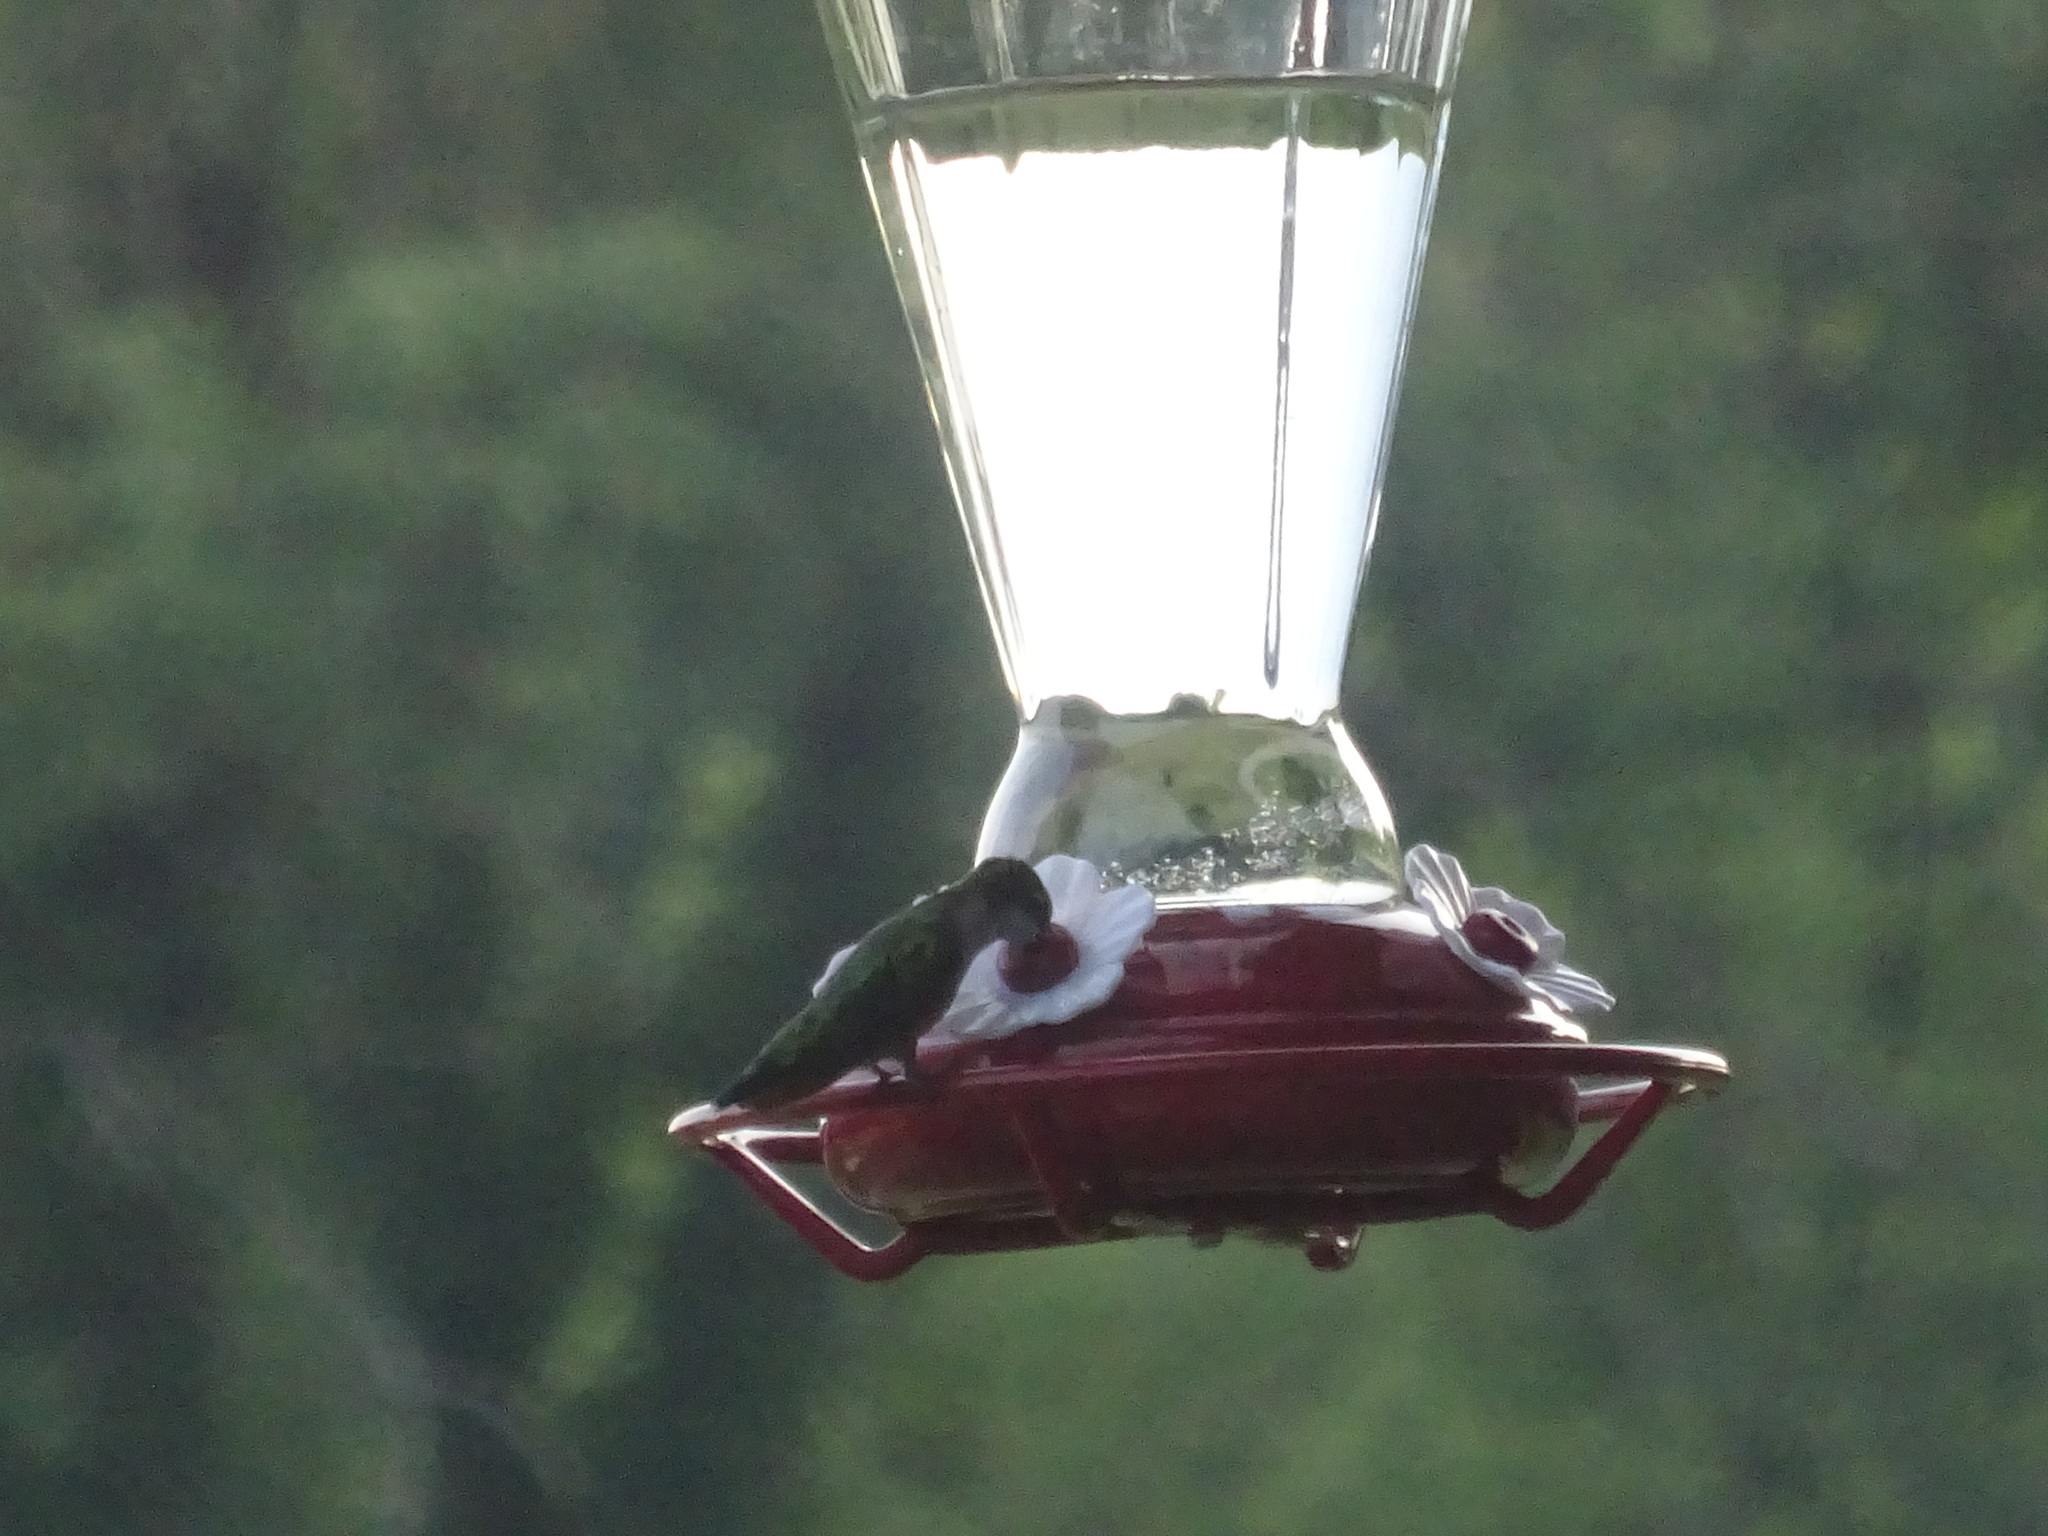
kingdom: Animalia
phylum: Chordata
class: Aves
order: Apodiformes
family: Trochilidae
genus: Archilochus
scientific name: Archilochus colubris
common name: Ruby-throated hummingbird
